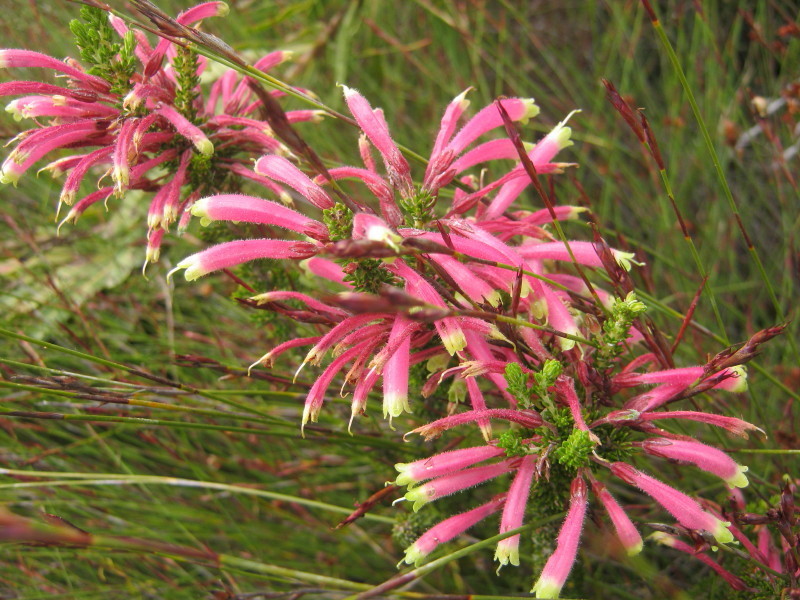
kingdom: Plantae
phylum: Tracheophyta
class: Magnoliopsida
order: Ericales
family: Ericaceae
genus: Erica
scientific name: Erica densifolia
